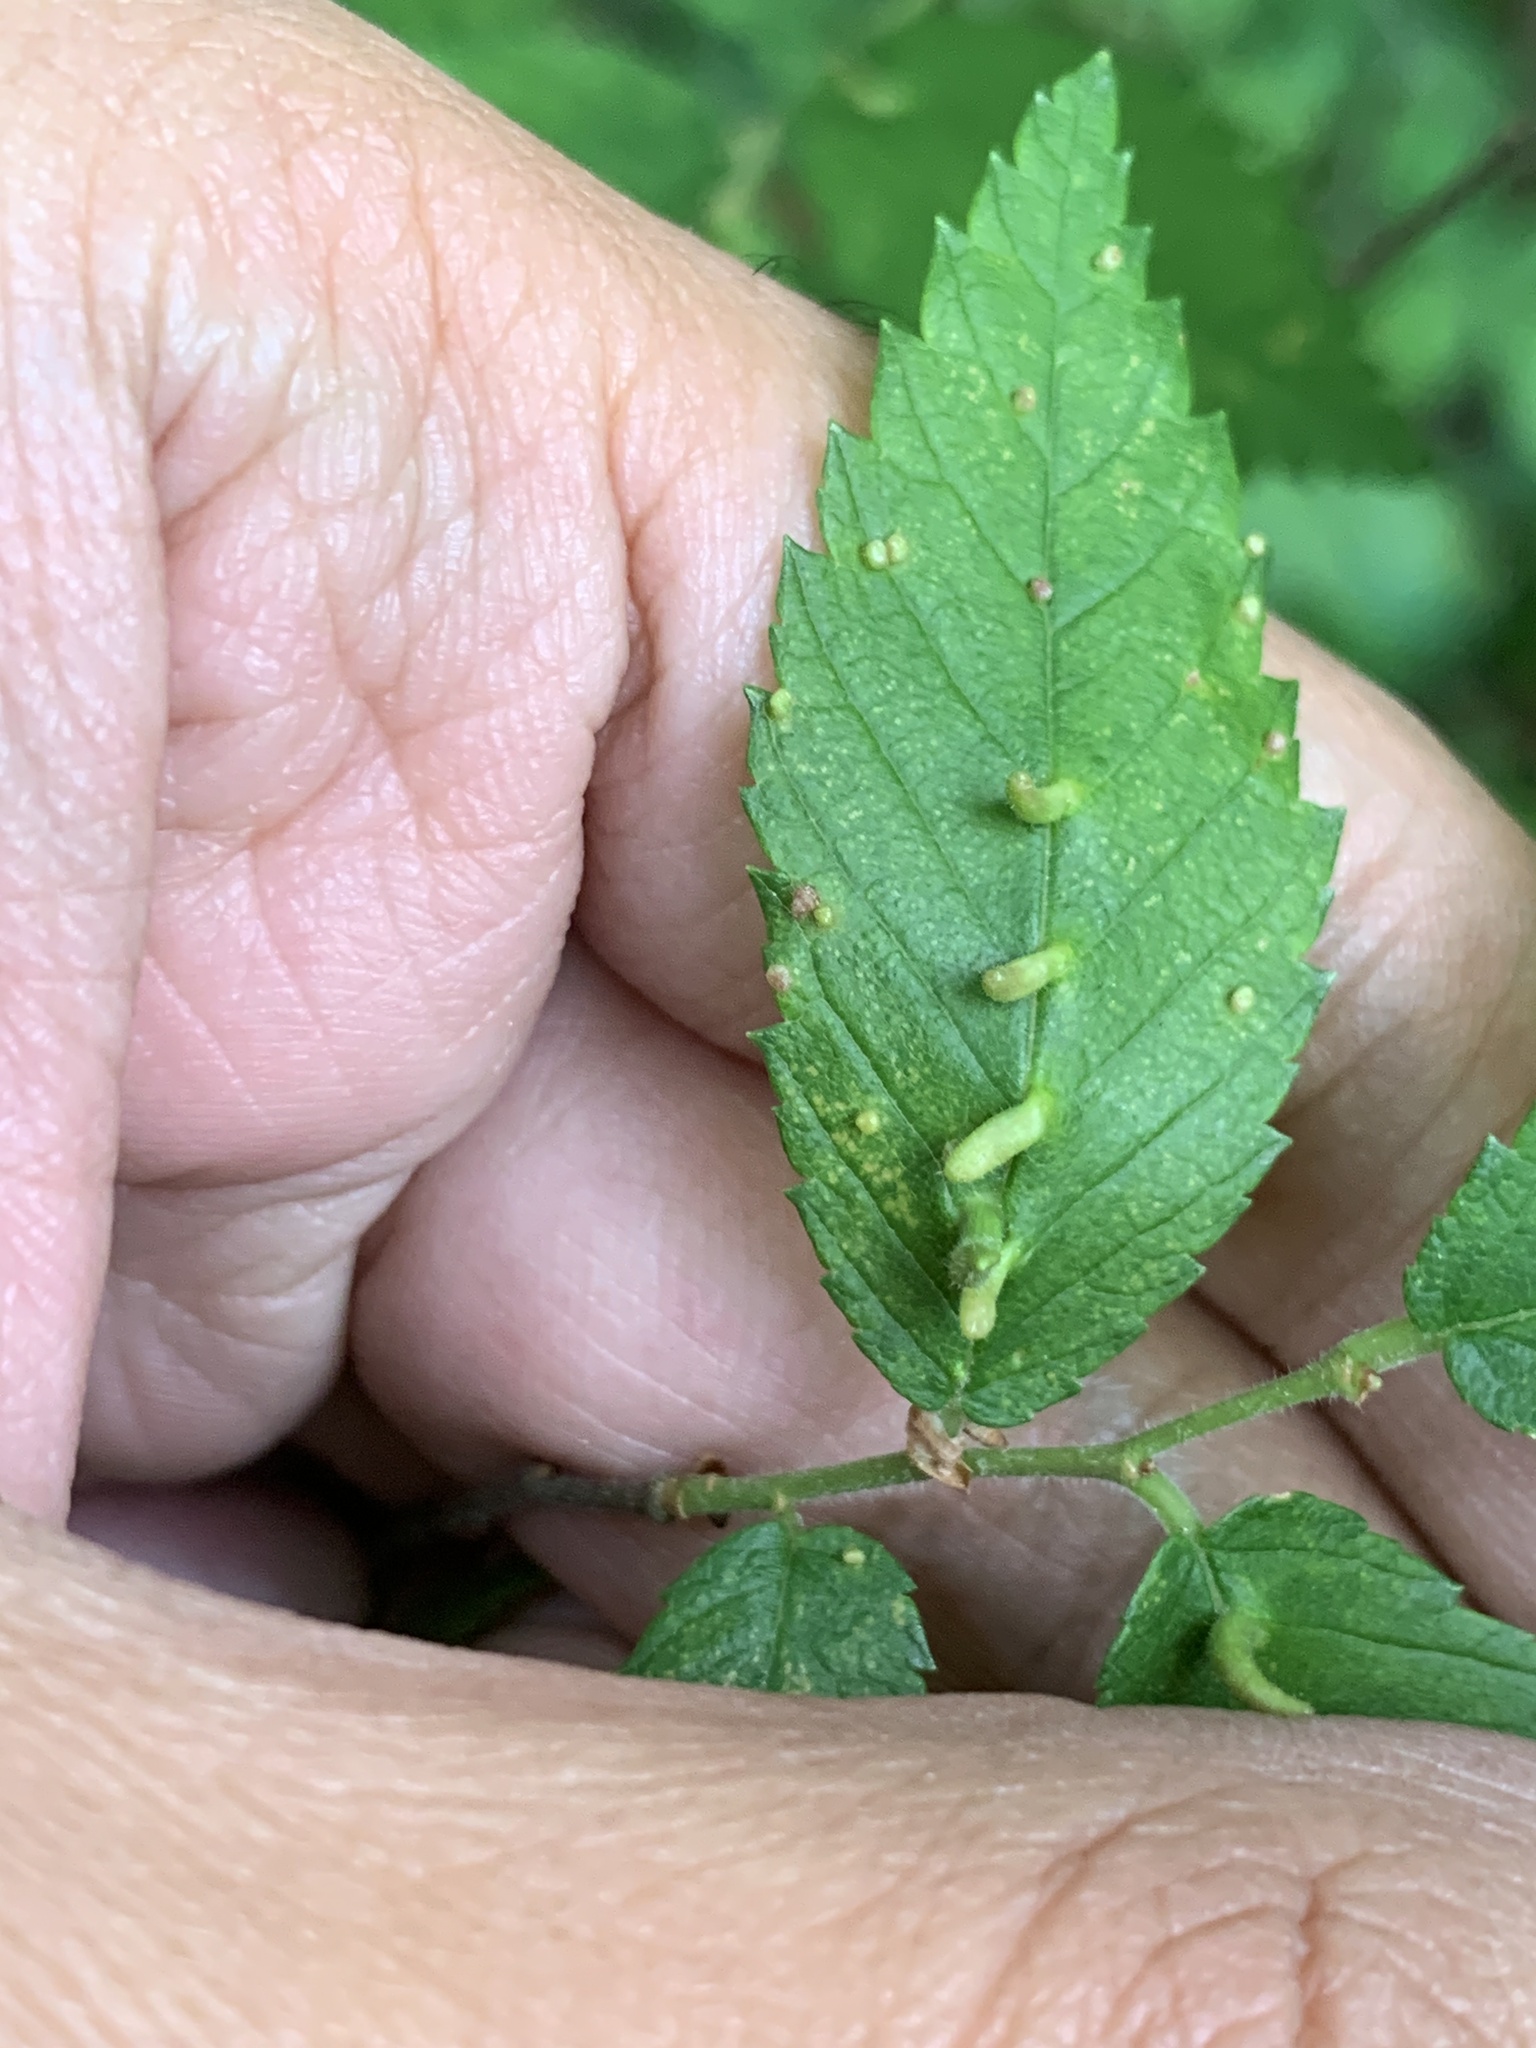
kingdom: Animalia
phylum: Arthropoda
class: Arachnida
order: Trombidiformes
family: Eriophyidae
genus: Aceria
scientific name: Aceria
